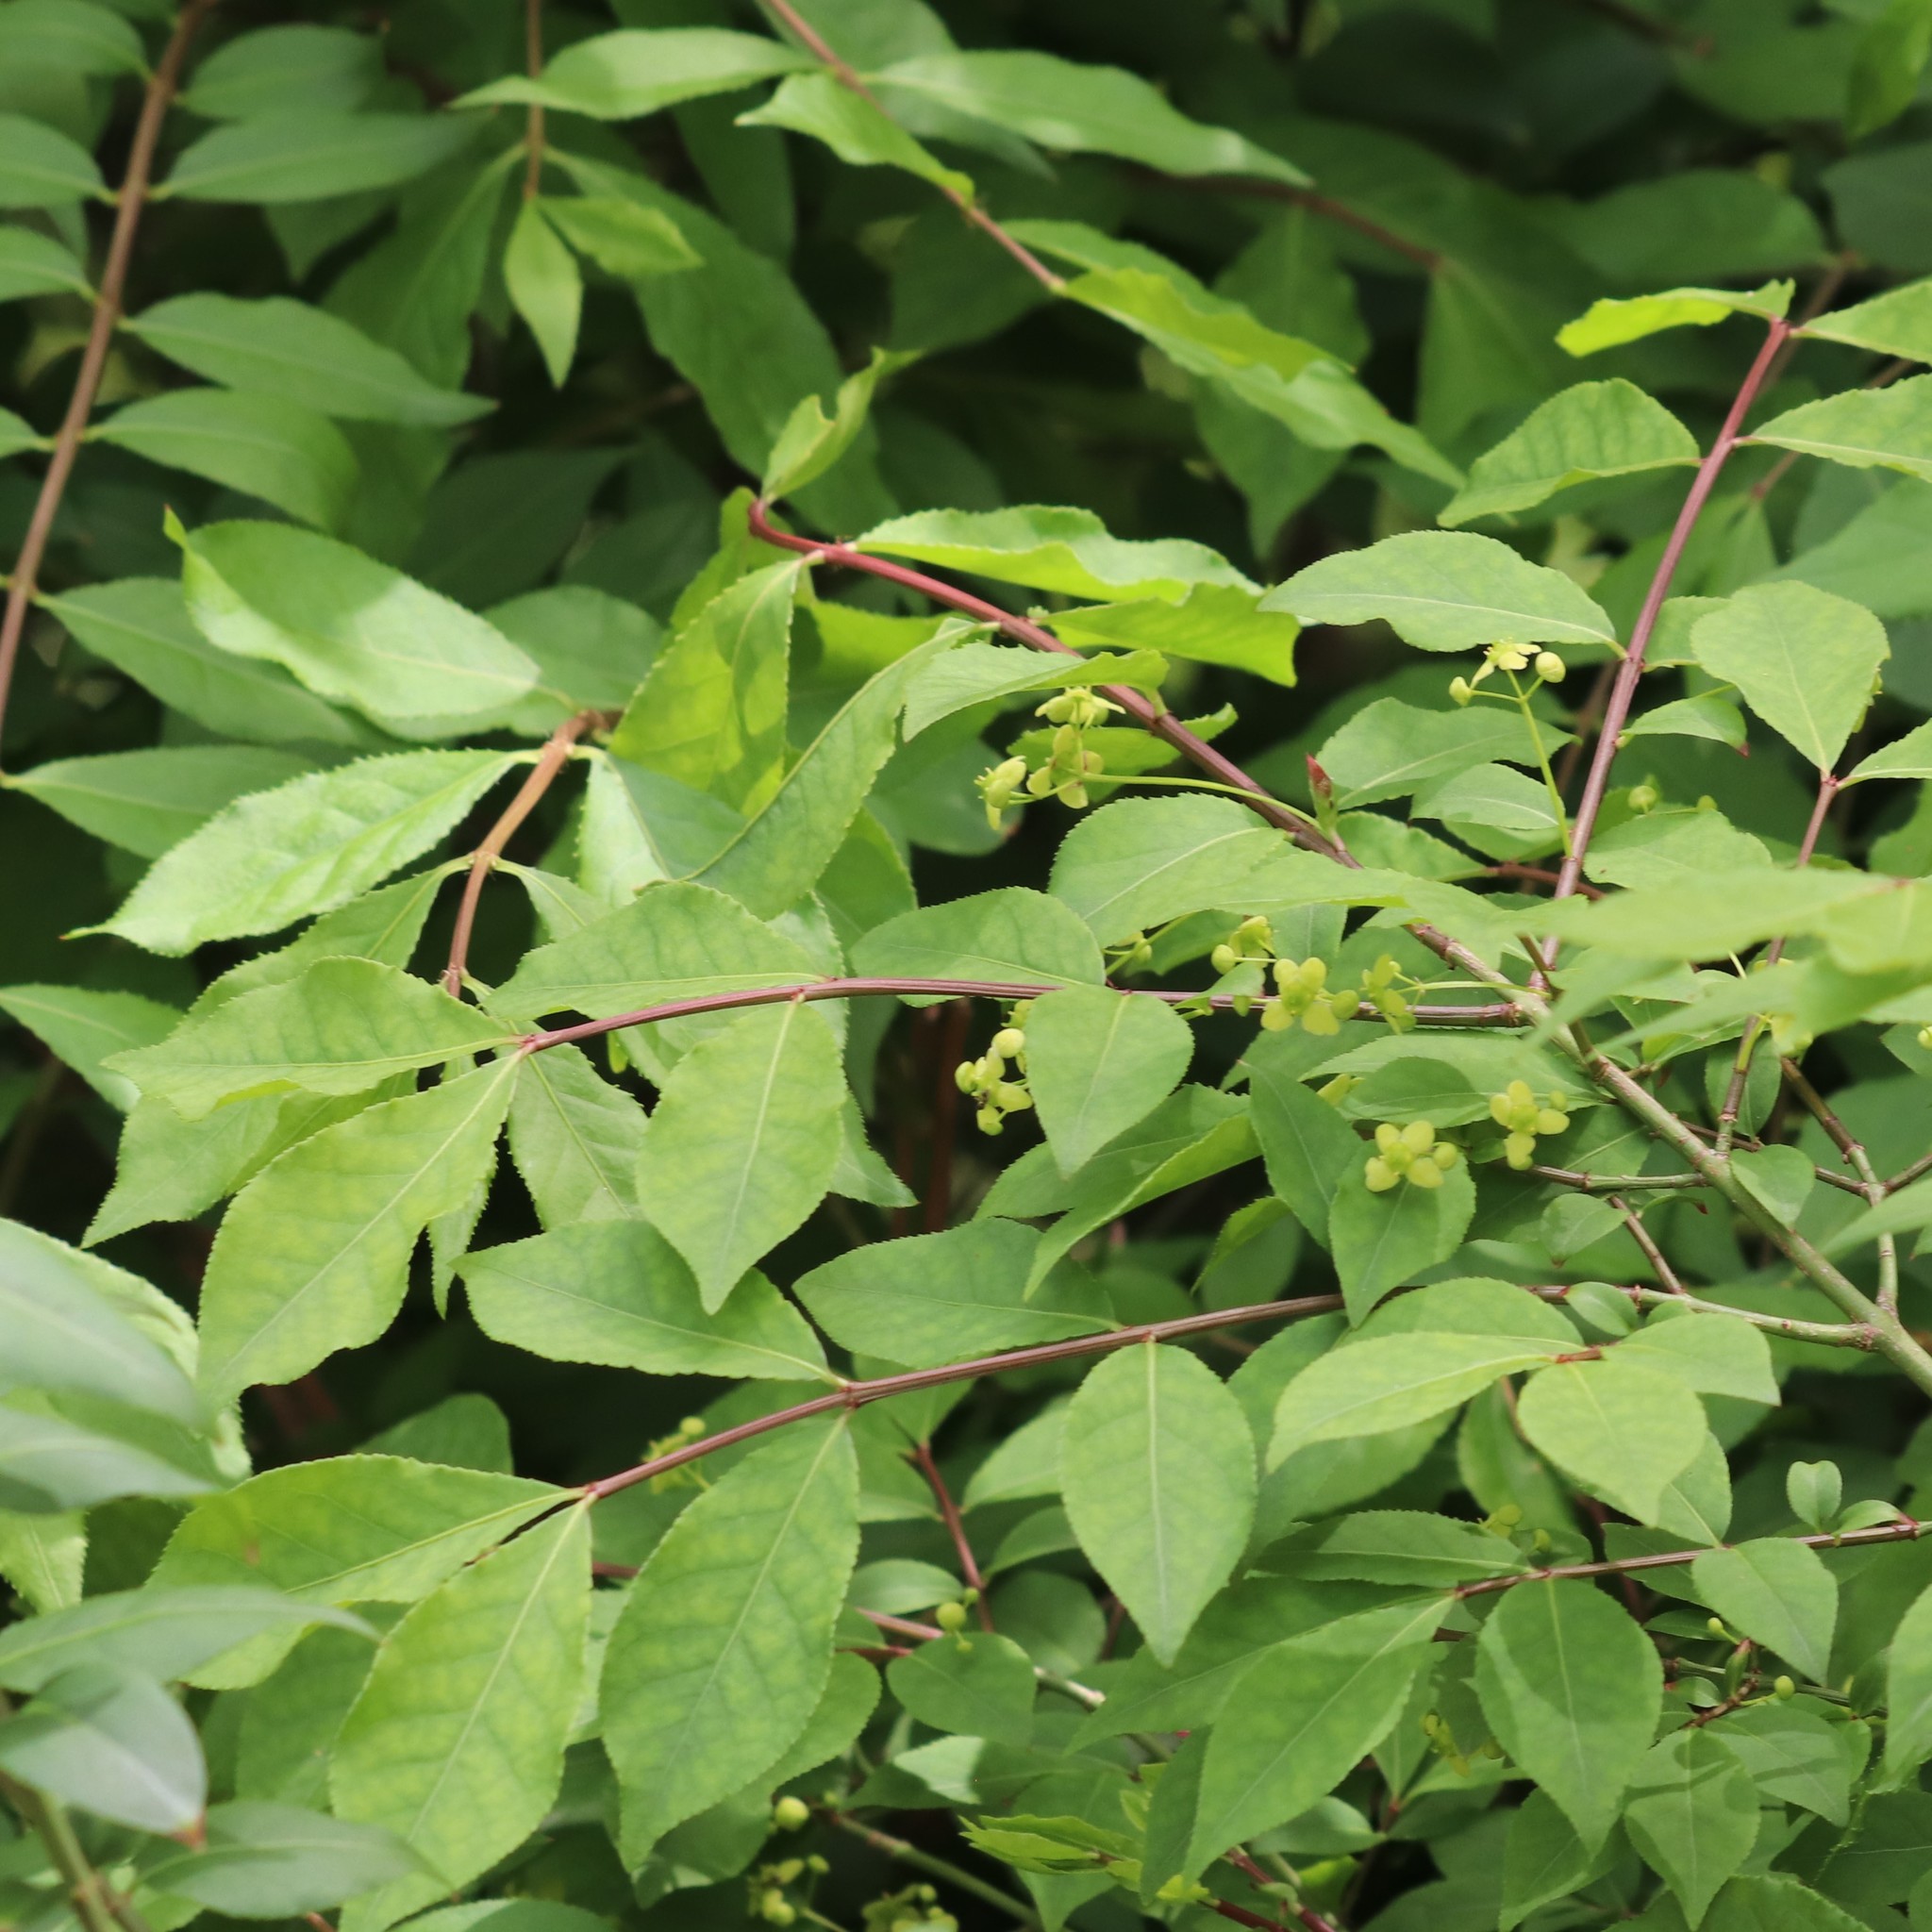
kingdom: Plantae
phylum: Tracheophyta
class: Magnoliopsida
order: Celastrales
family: Celastraceae
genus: Euonymus
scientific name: Euonymus alatus
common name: Winged euonymus
